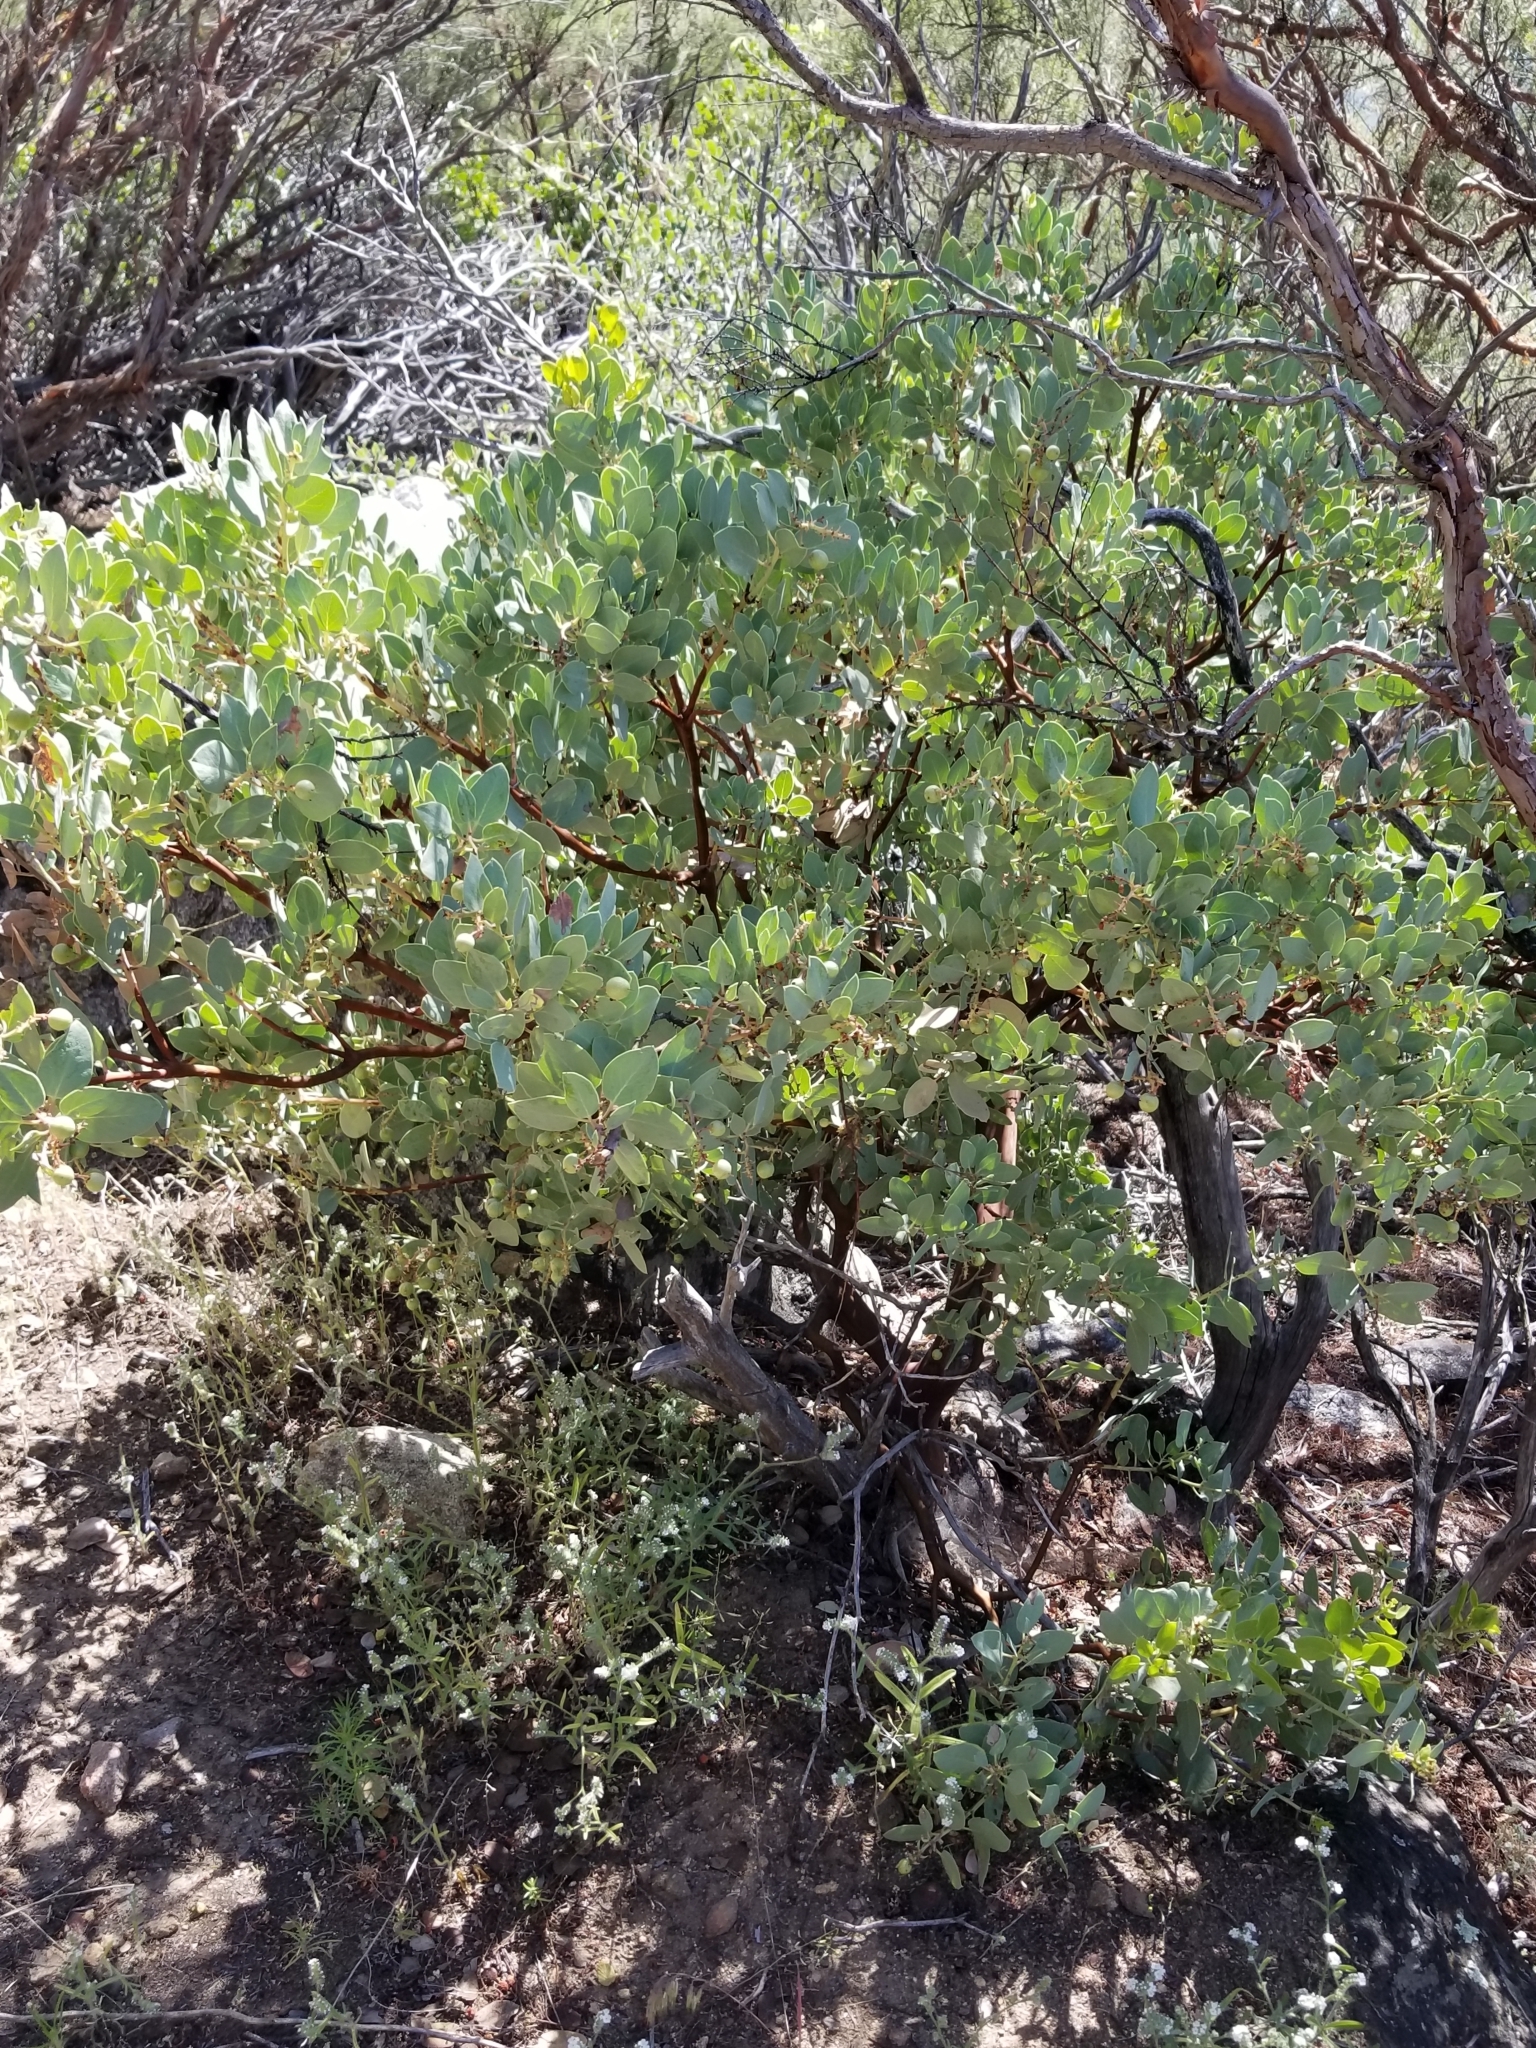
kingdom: Plantae
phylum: Tracheophyta
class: Magnoliopsida
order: Ericales
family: Ericaceae
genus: Arctostaphylos
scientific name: Arctostaphylos glauca
